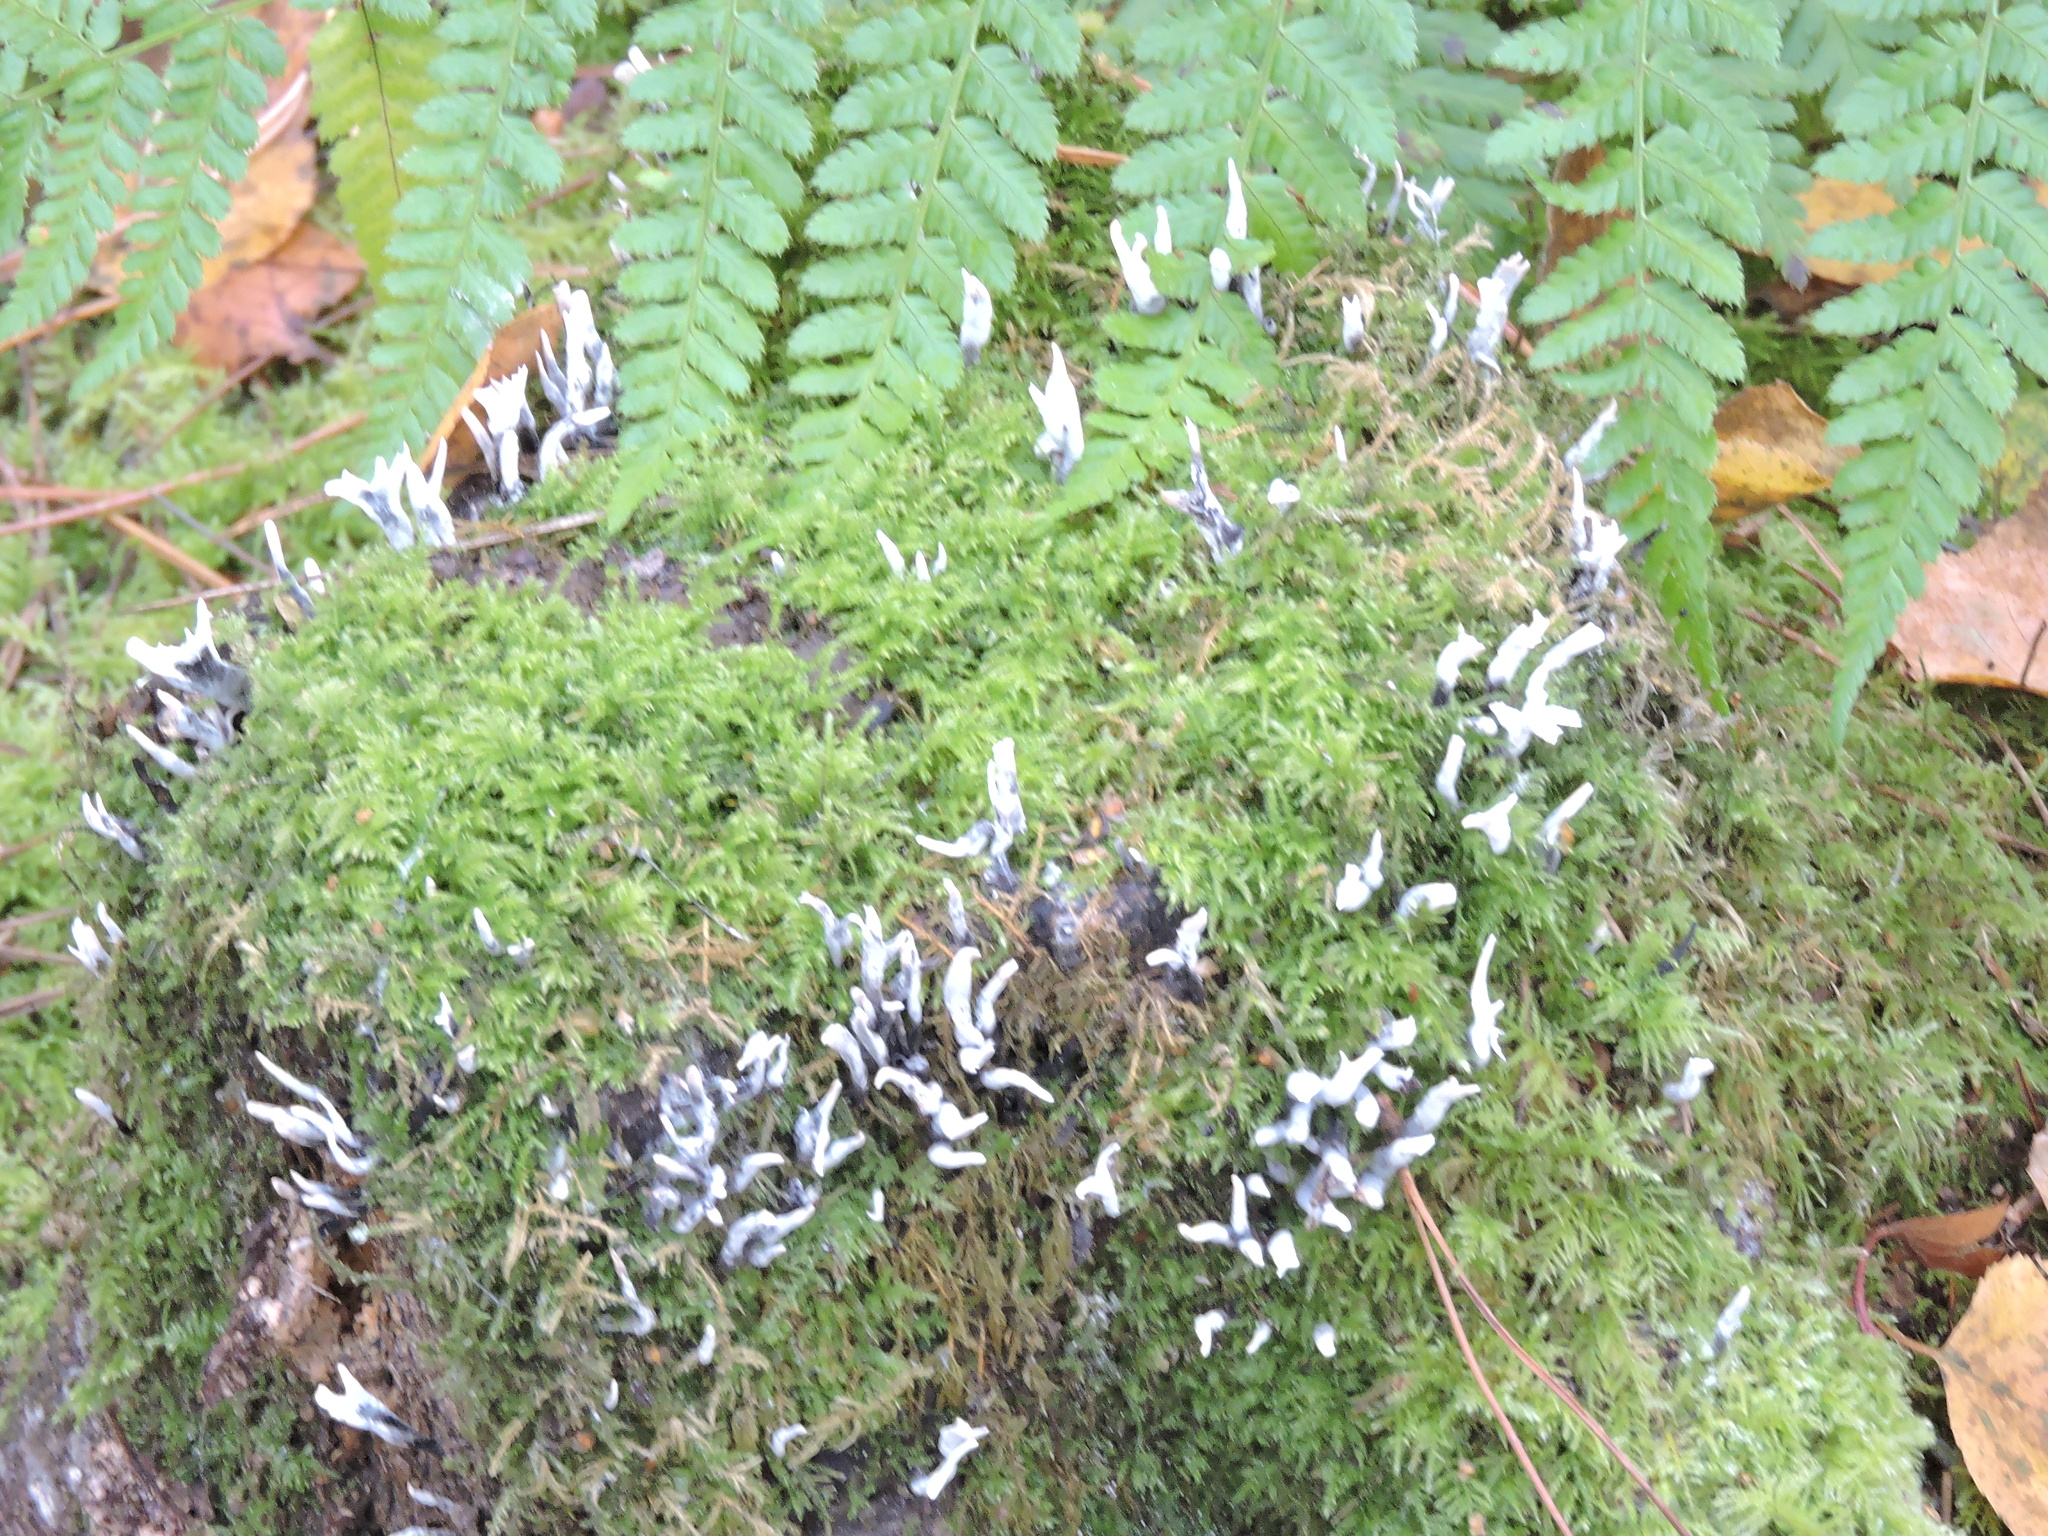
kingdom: Fungi
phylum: Ascomycota
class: Sordariomycetes
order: Xylariales
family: Xylariaceae
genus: Xylaria
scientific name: Xylaria hypoxylon
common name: Candle-snuff fungus
